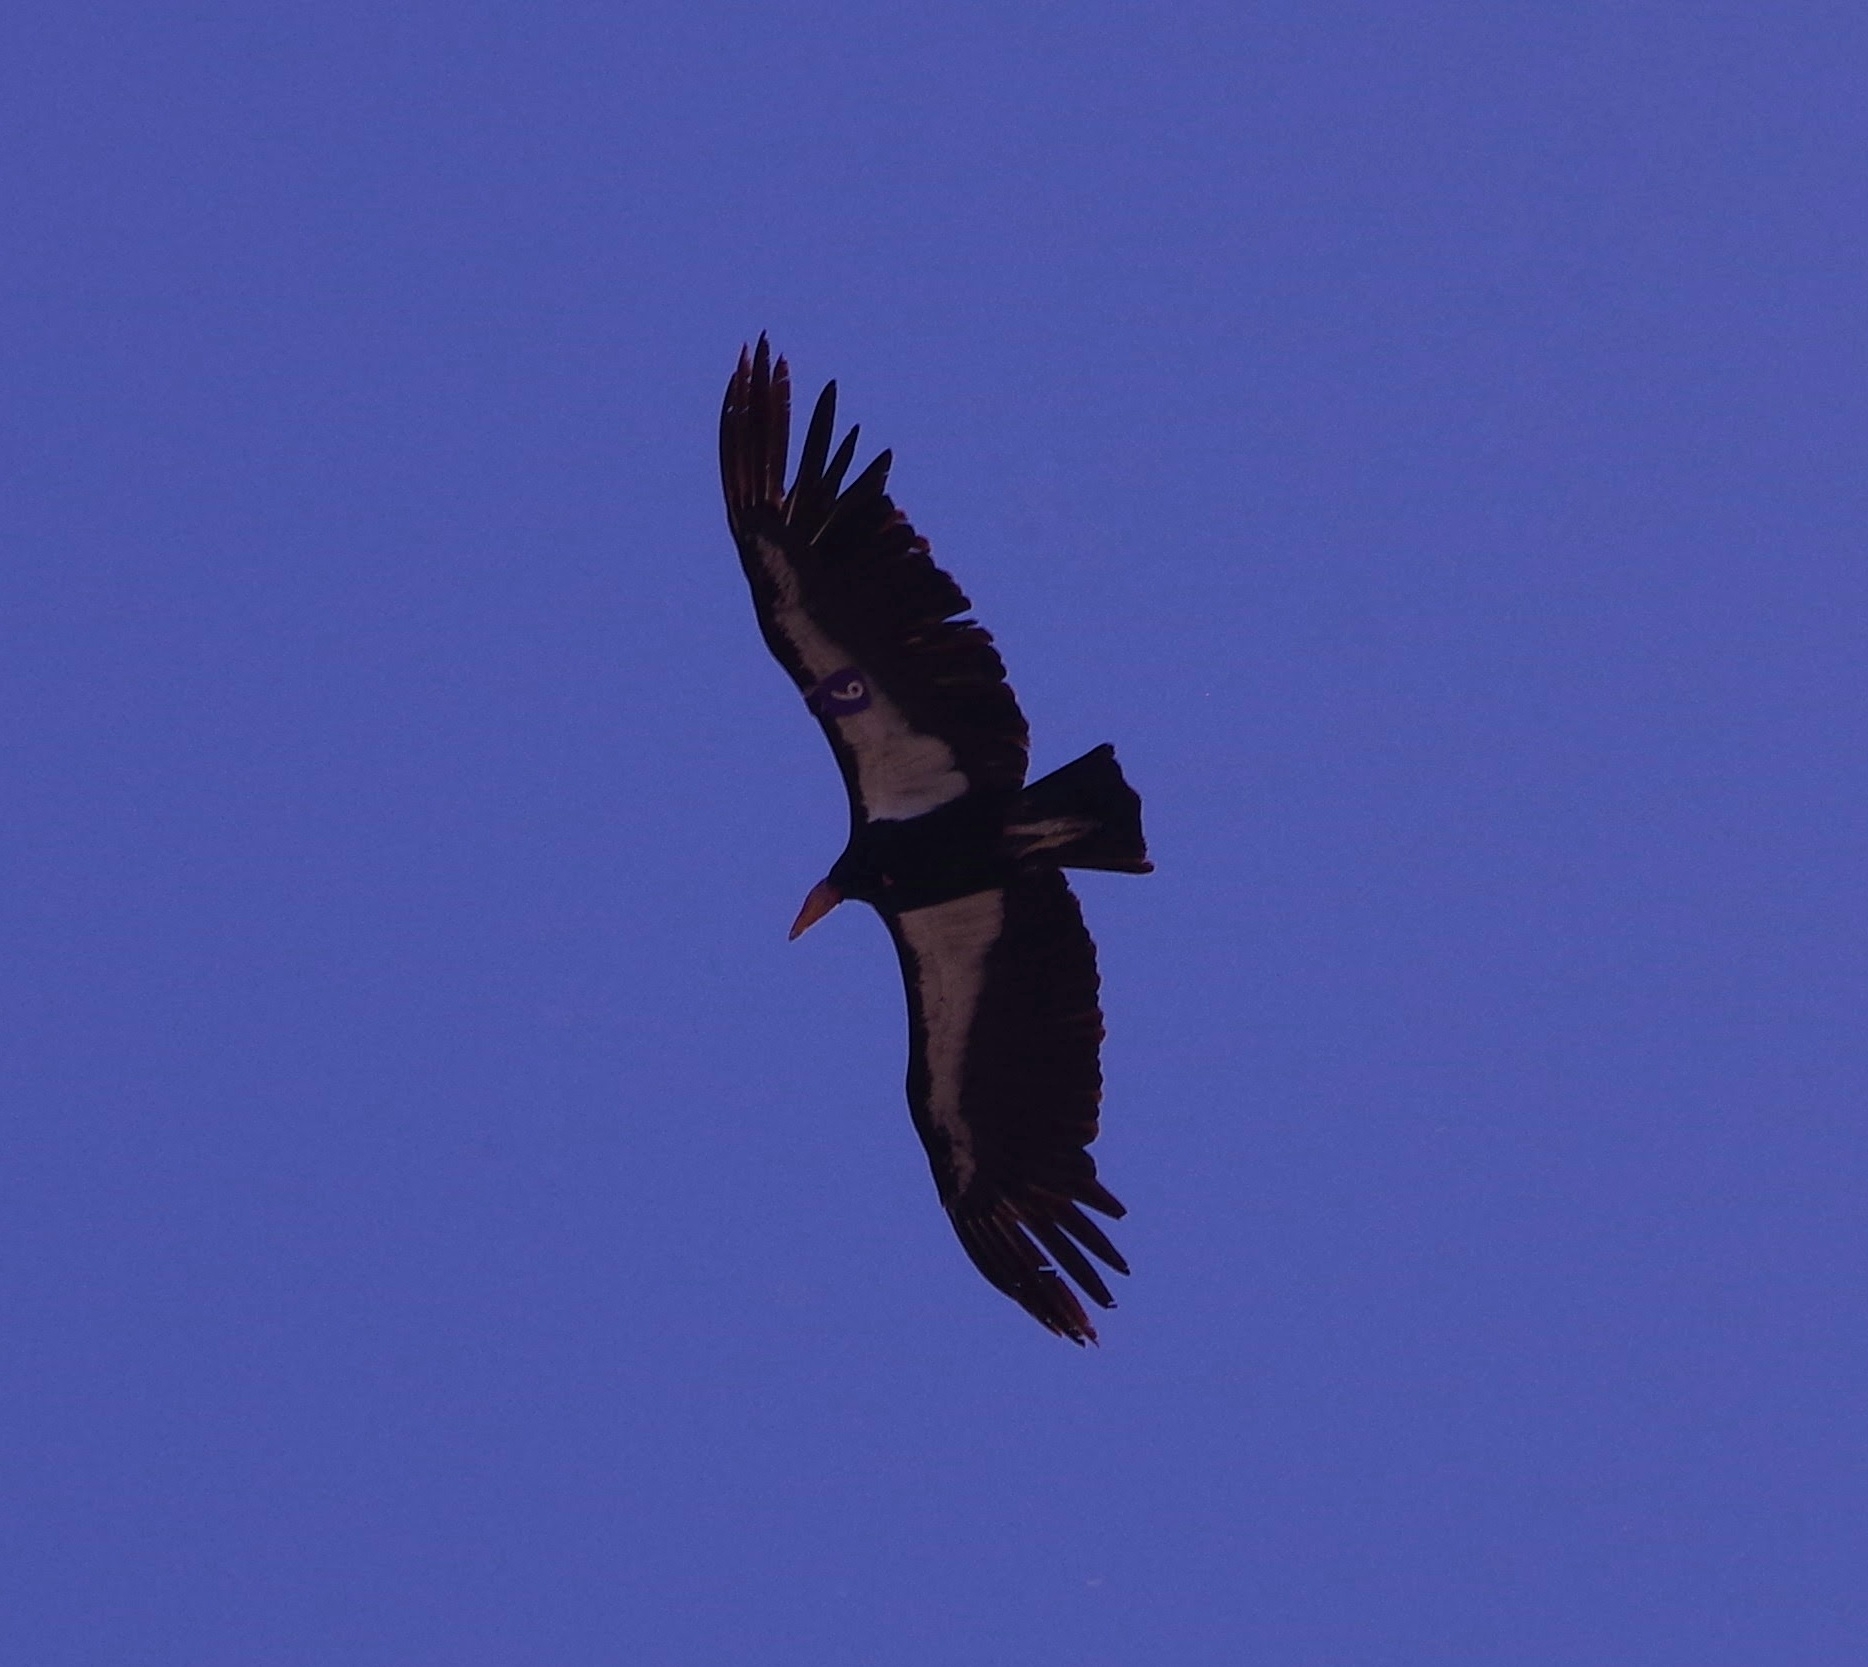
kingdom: Animalia
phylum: Chordata
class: Aves
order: Accipitriformes
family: Cathartidae
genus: Gymnogyps
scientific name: Gymnogyps californianus
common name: California condor
